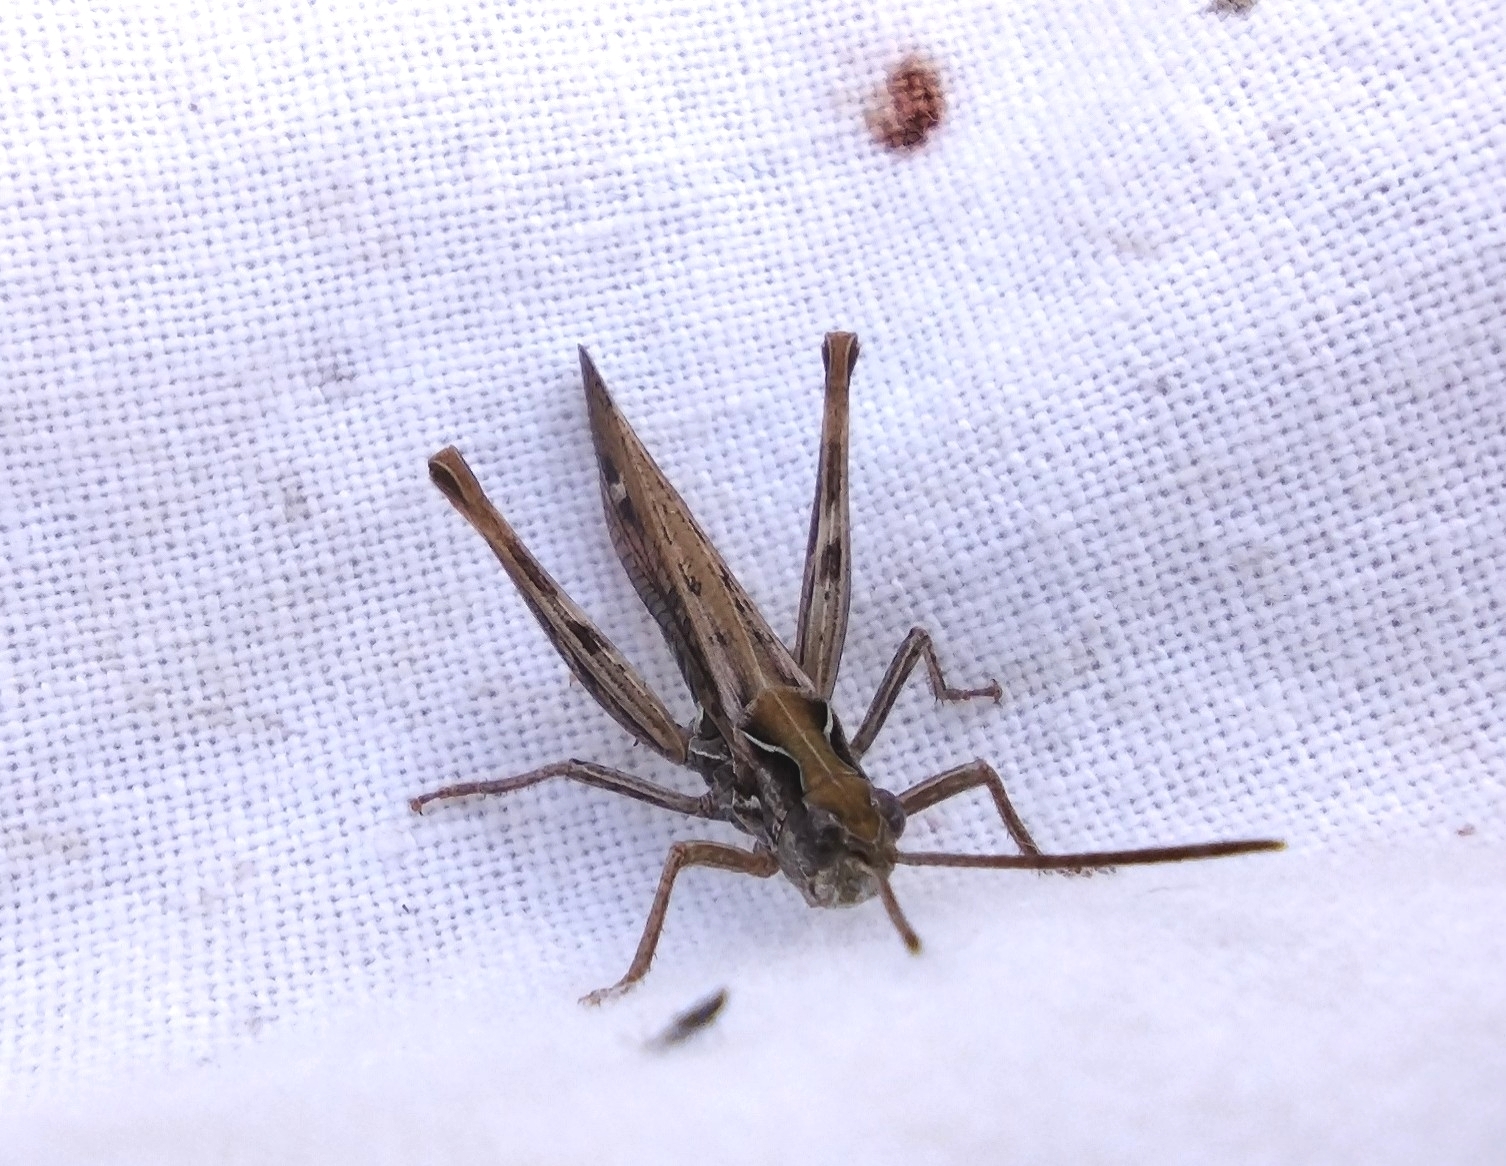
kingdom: Animalia
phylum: Arthropoda
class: Insecta
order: Orthoptera
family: Acrididae
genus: Chorthippus
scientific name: Chorthippus biguttulus
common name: Bow-winged grasshopper
